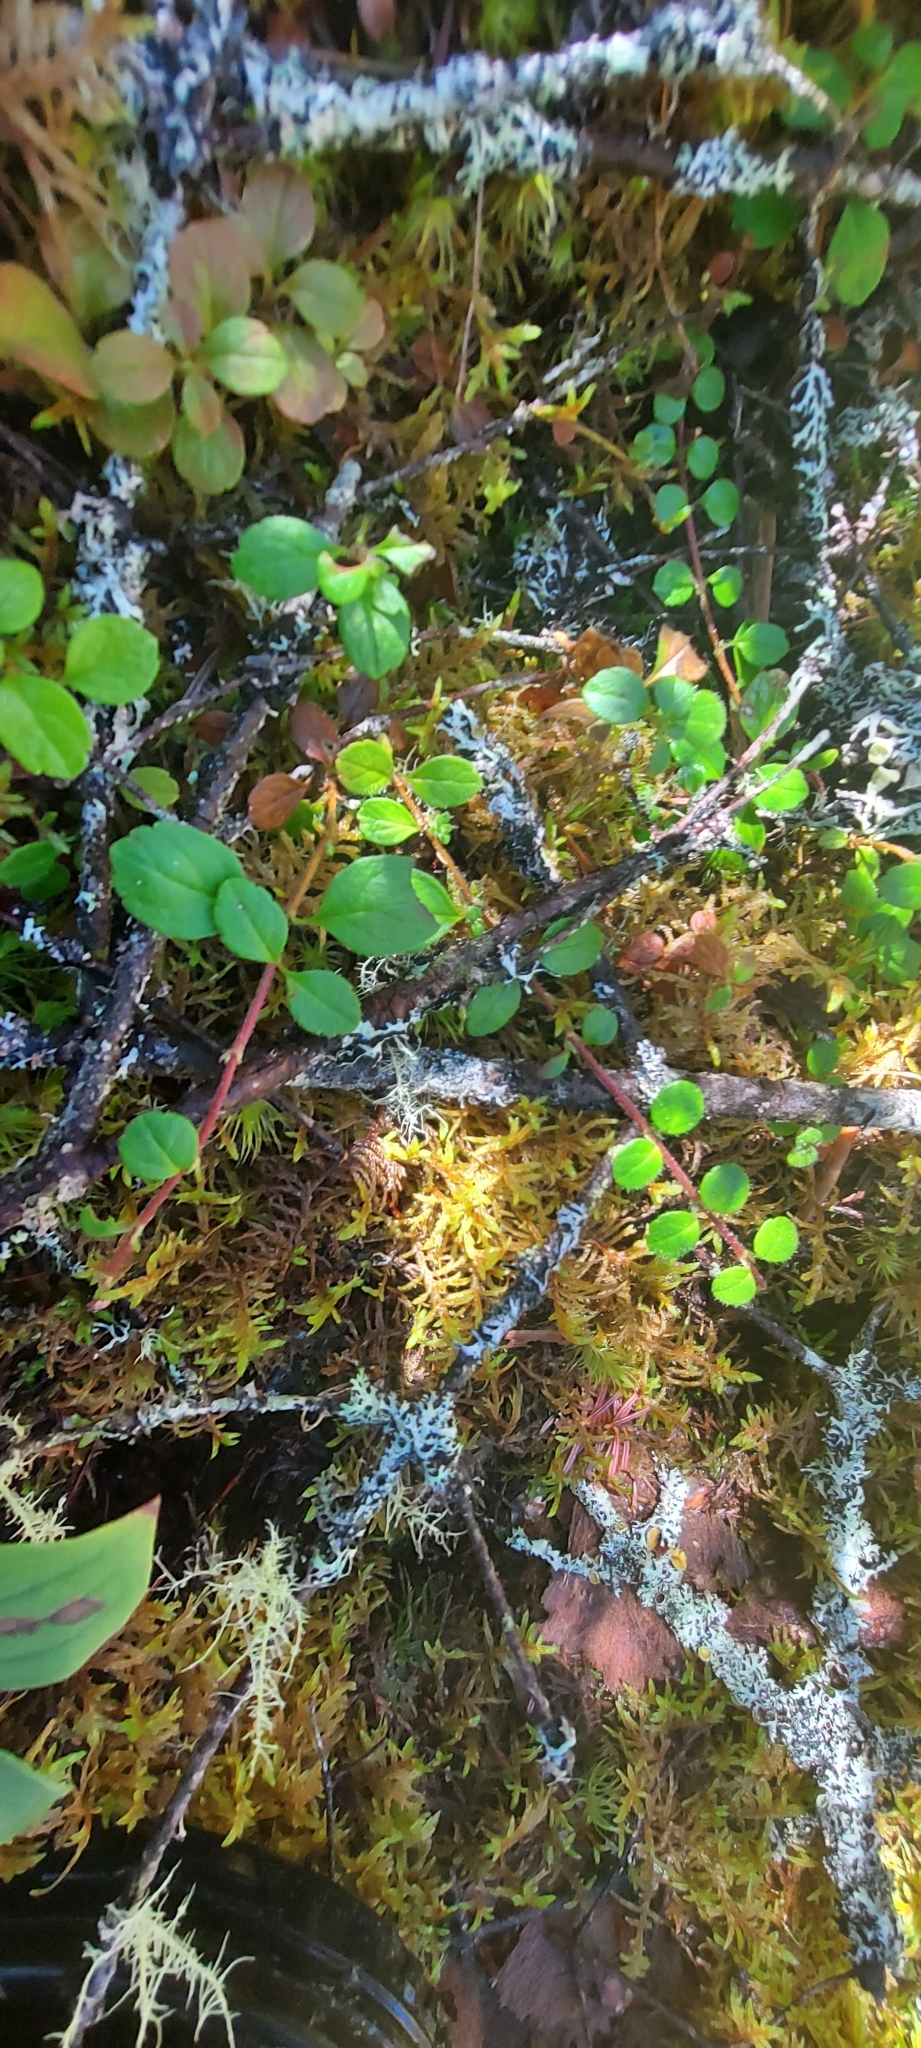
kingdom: Plantae
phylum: Tracheophyta
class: Magnoliopsida
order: Ericales
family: Ericaceae
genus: Gaultheria
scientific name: Gaultheria hispidula
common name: Cancer wintergreen
